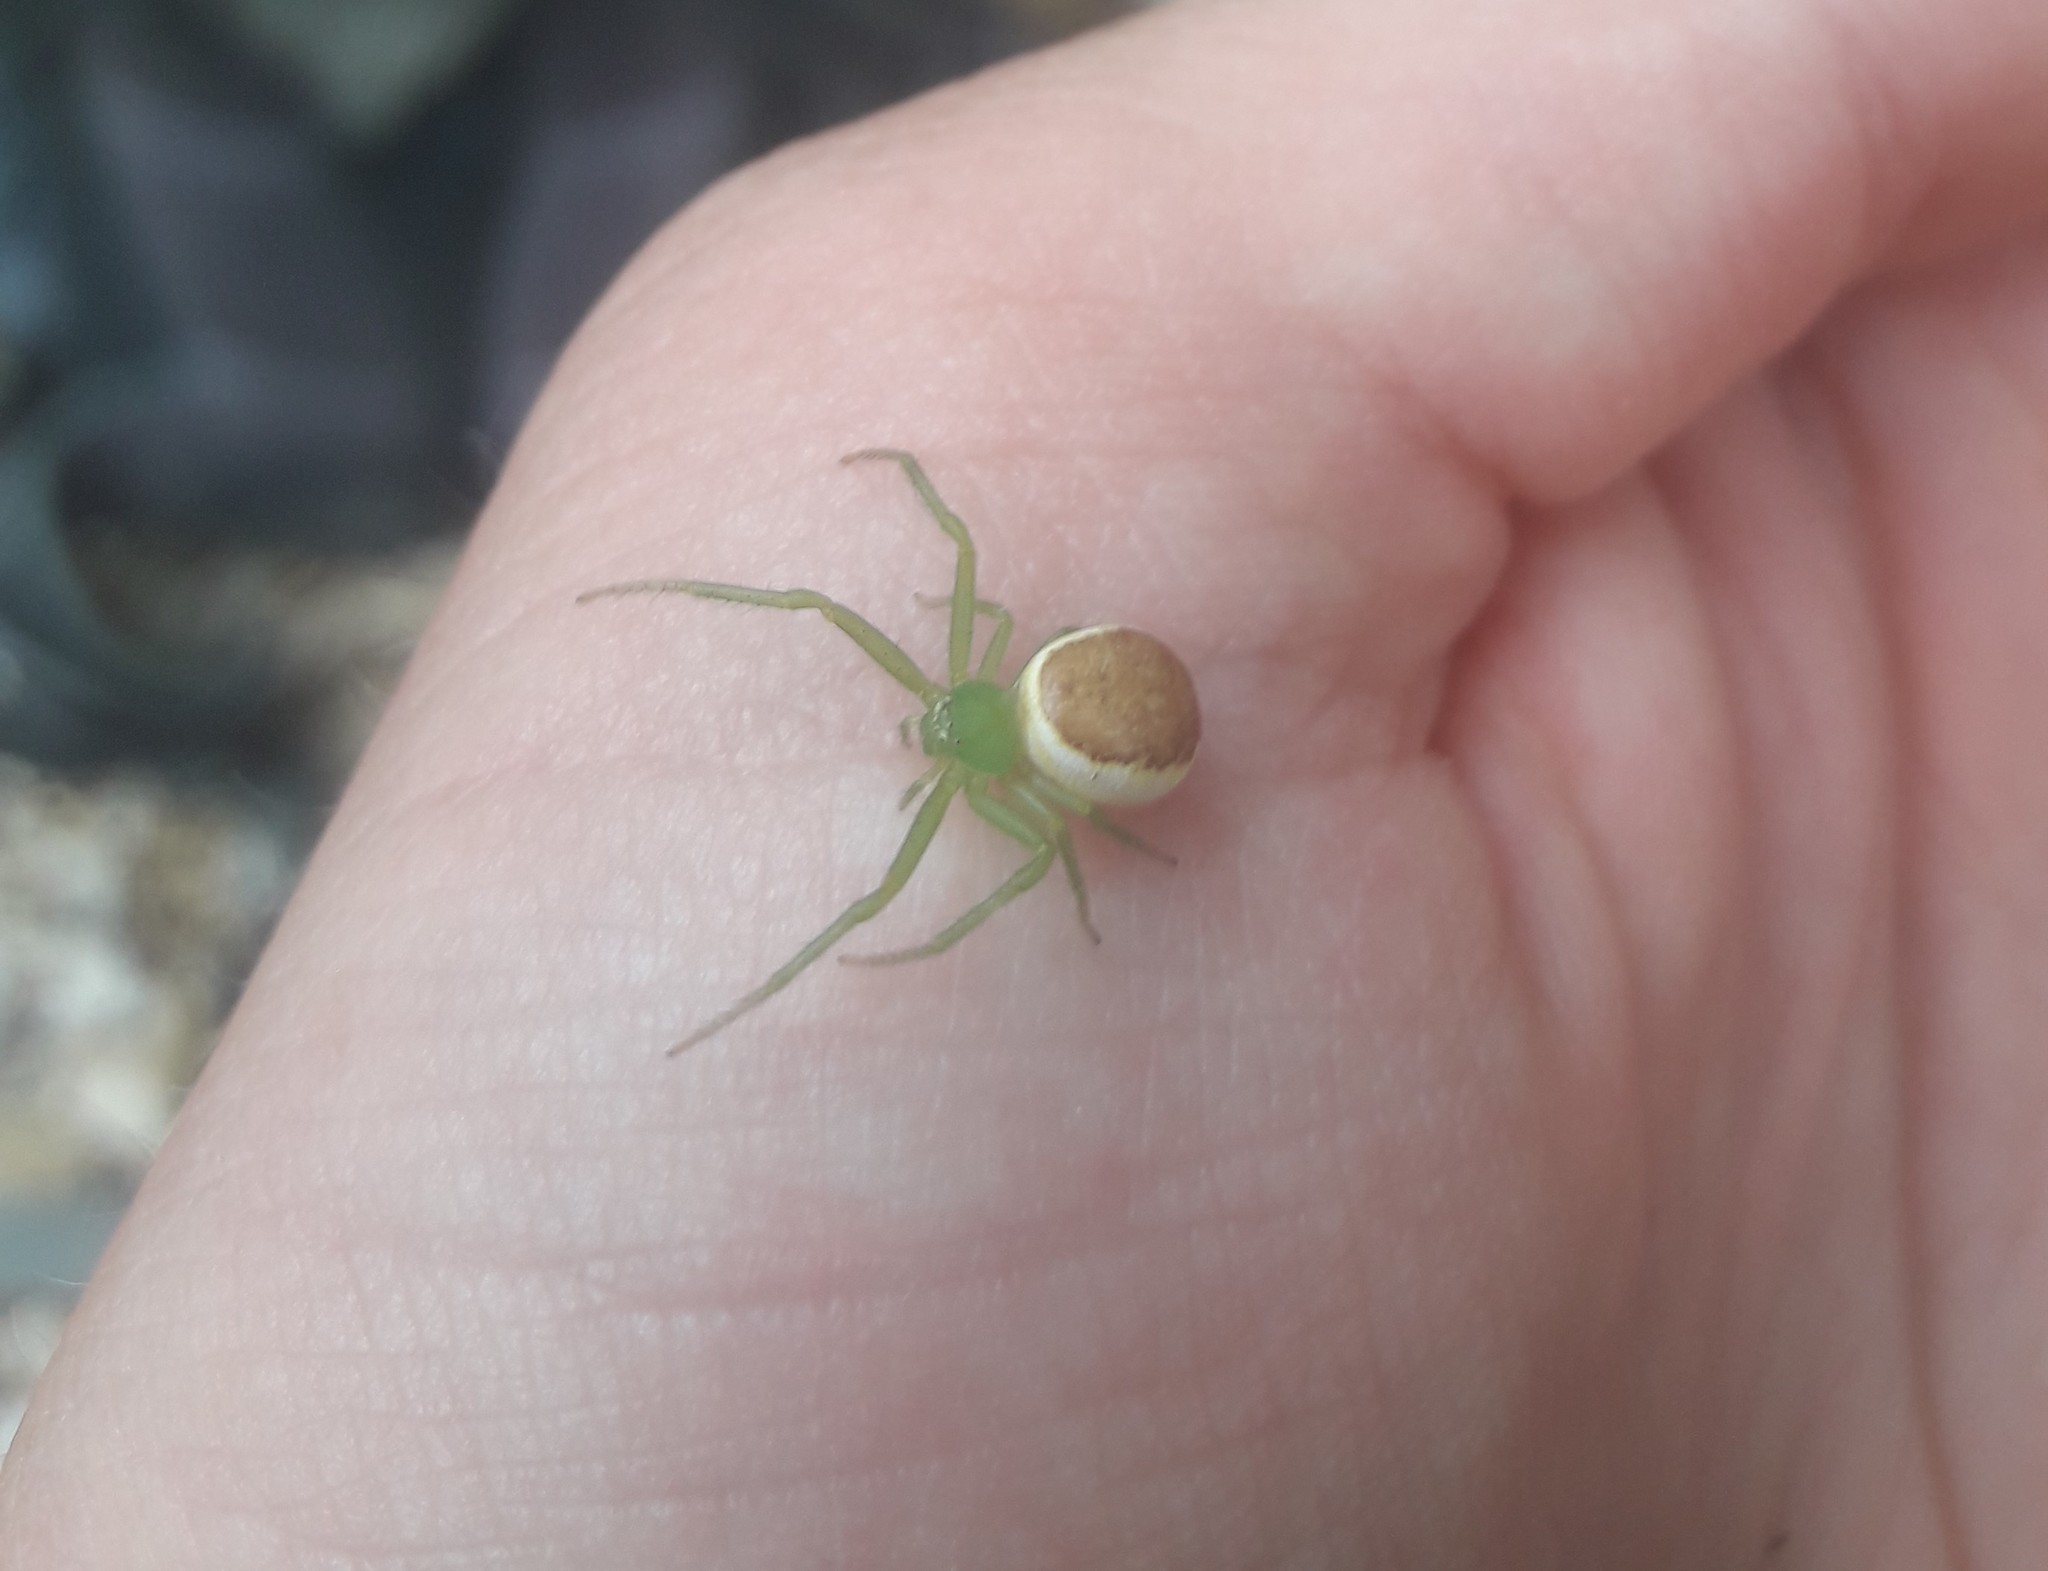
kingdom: Animalia
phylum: Arthropoda
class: Arachnida
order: Araneae
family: Thomisidae
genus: Diaea
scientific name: Diaea dorsata
